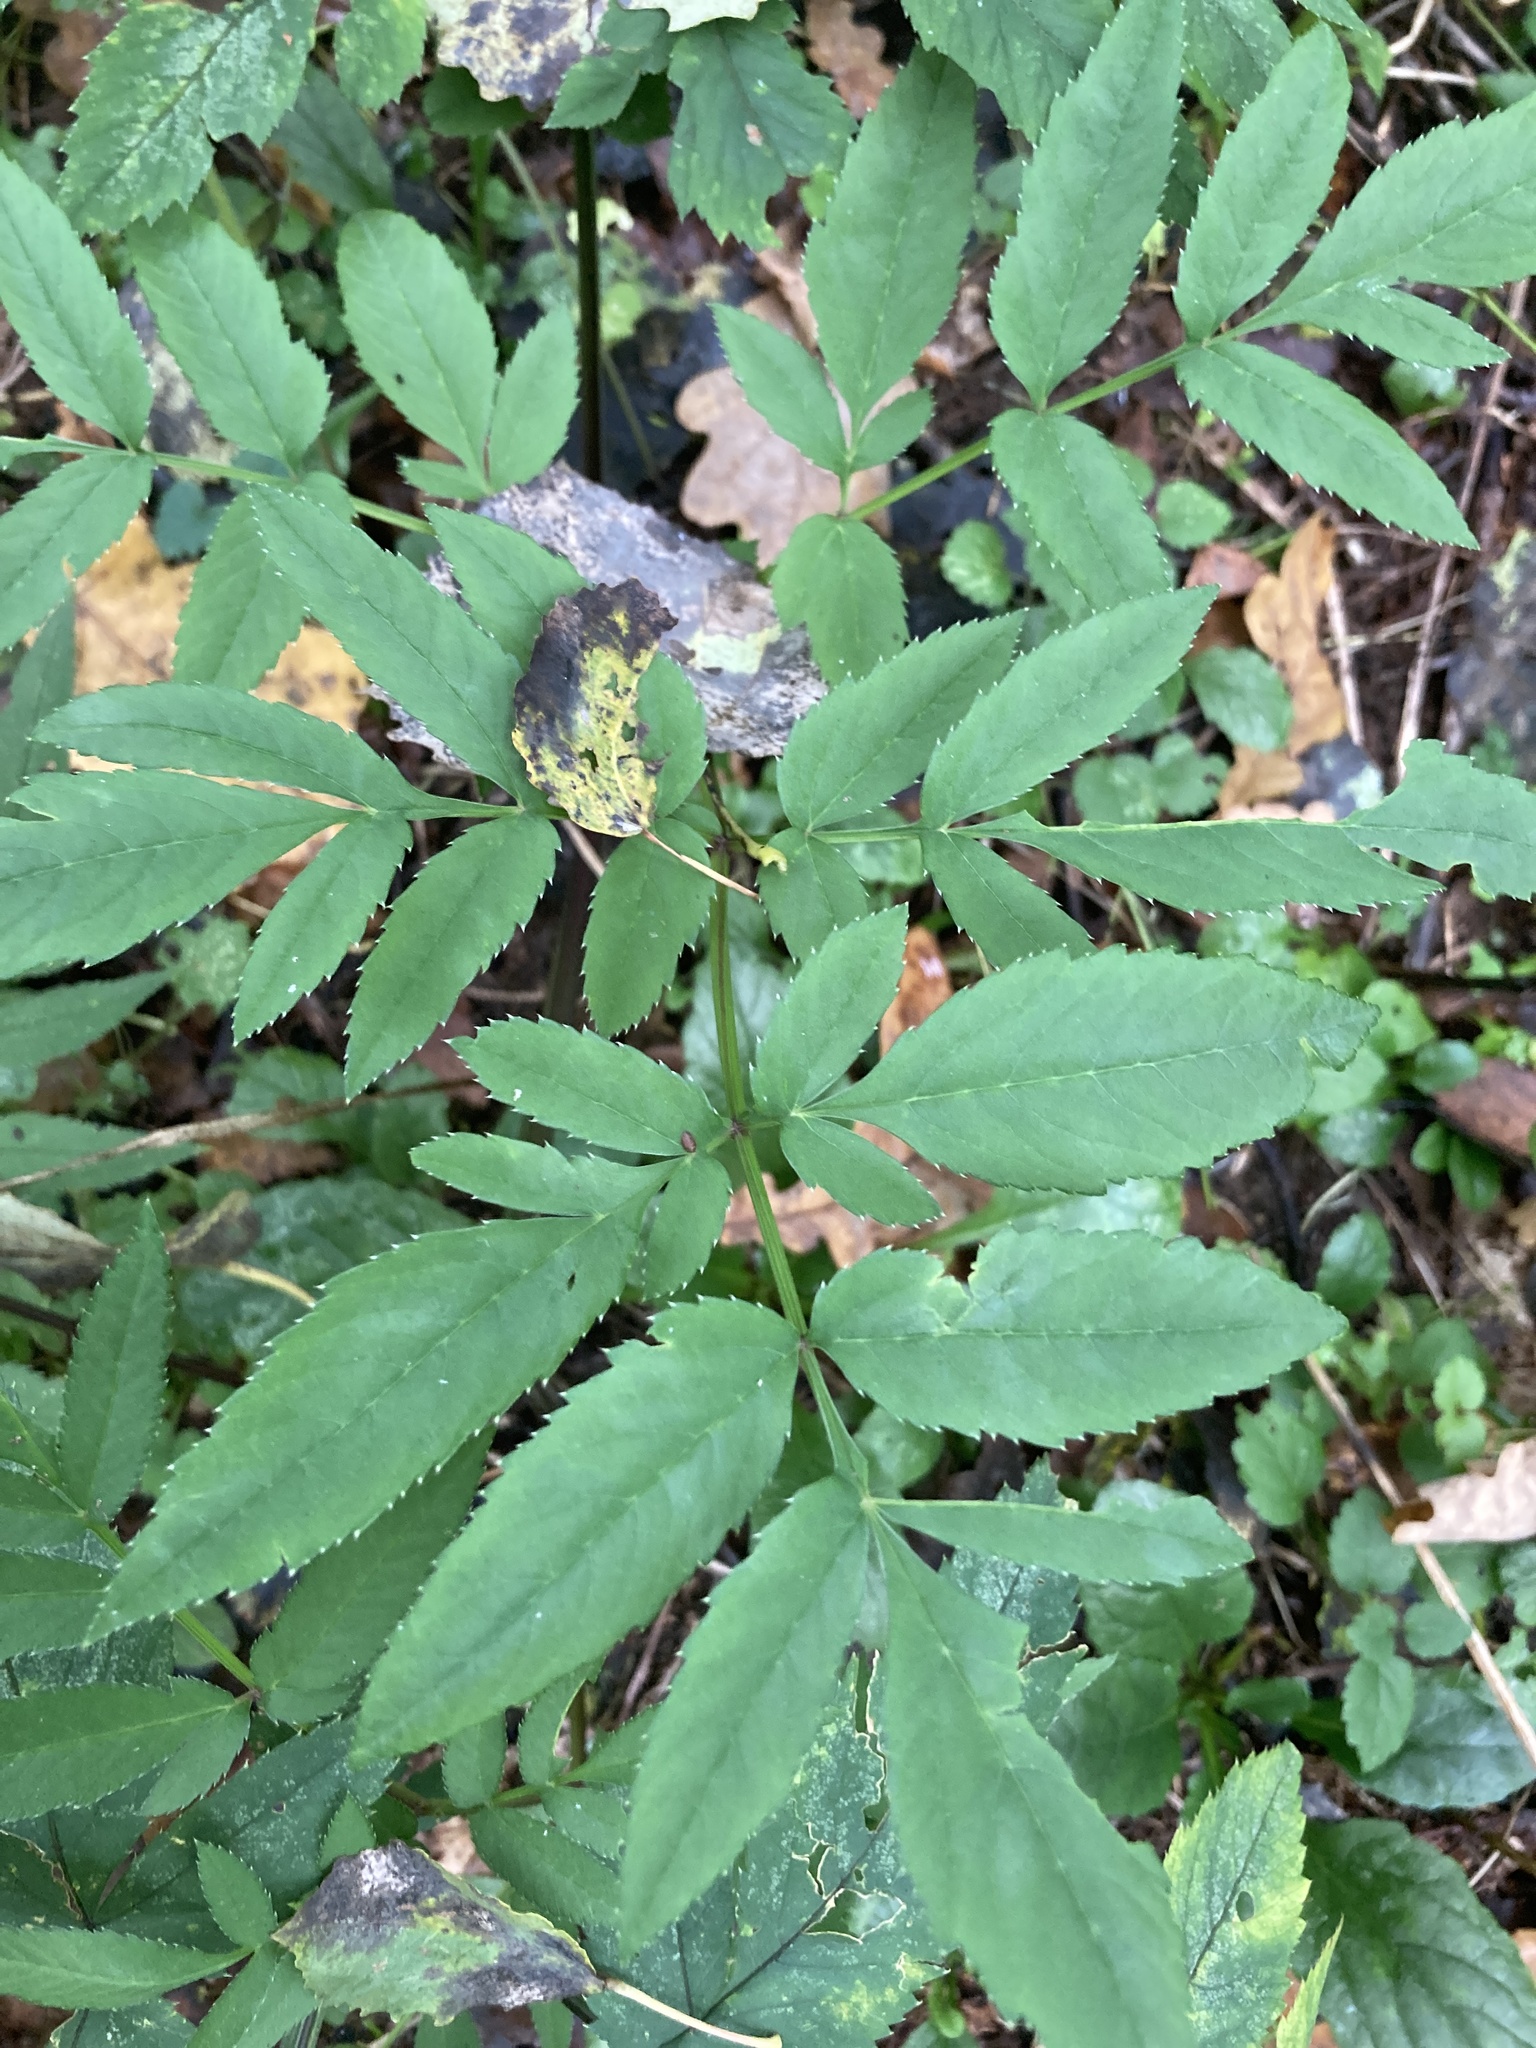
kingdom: Plantae
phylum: Tracheophyta
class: Magnoliopsida
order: Apiales
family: Apiaceae
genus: Angelica
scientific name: Angelica sylvestris
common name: Wild angelica
